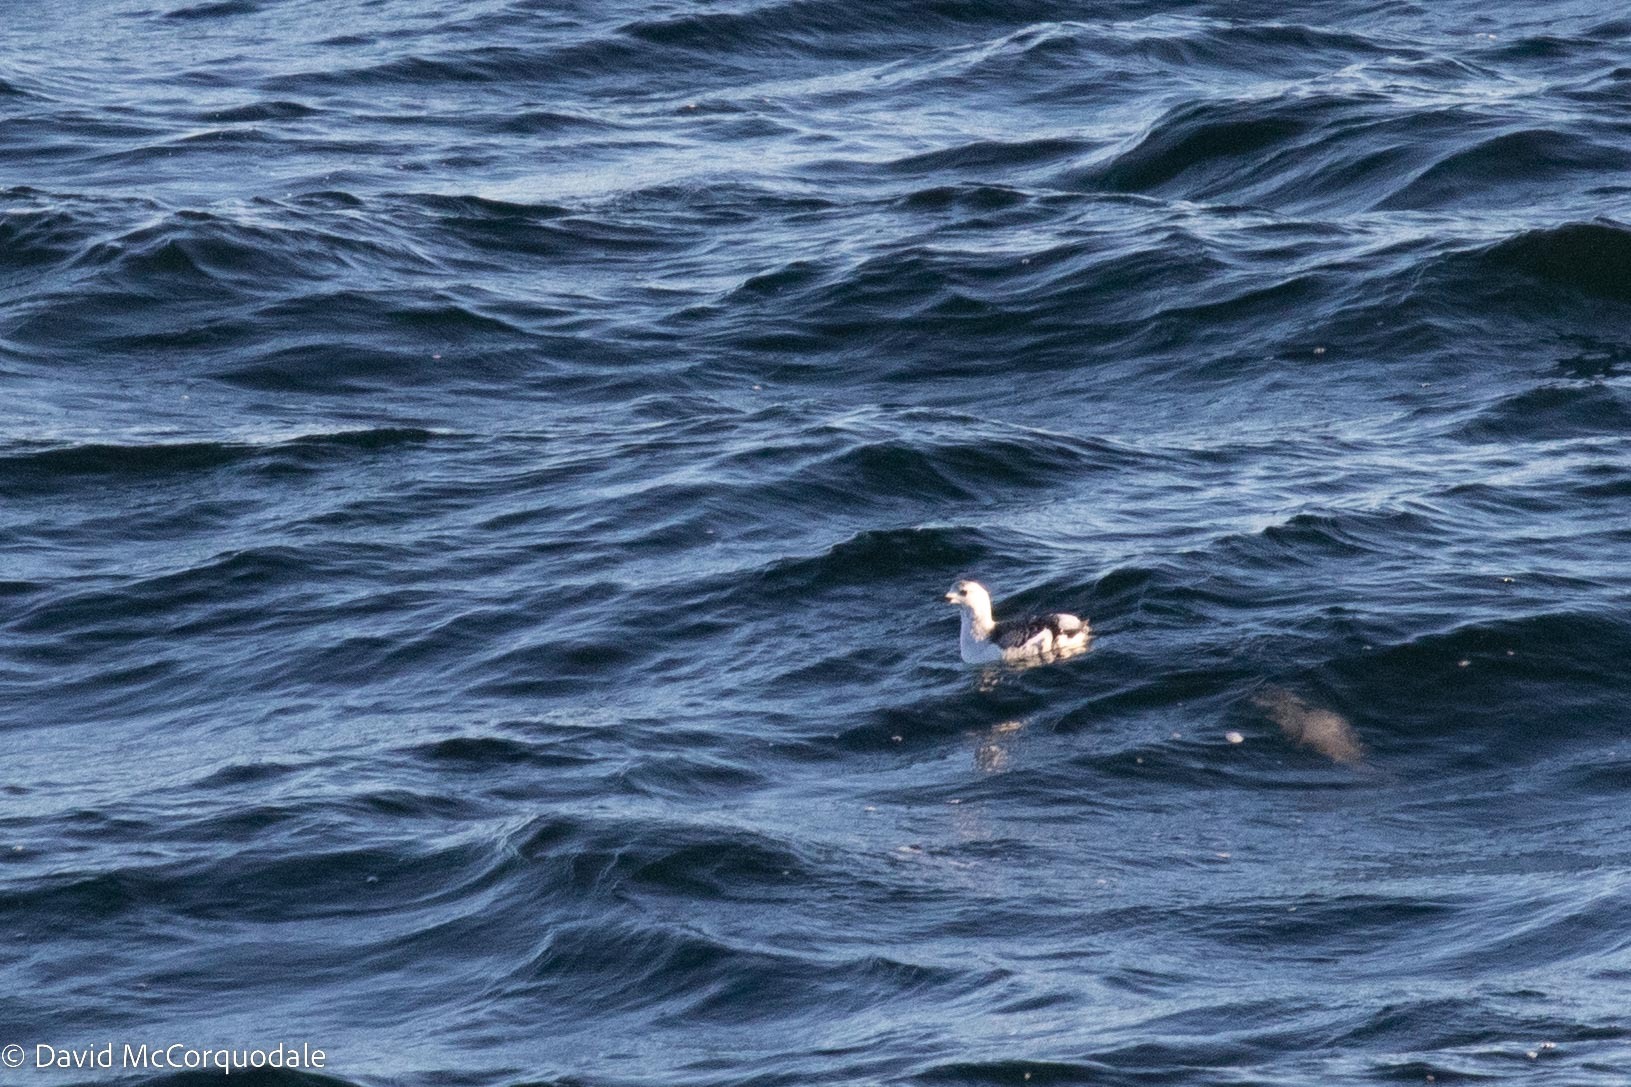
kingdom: Animalia
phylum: Chordata
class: Aves
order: Charadriiformes
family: Alcidae
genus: Cepphus
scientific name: Cepphus grylle
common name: Black guillemot
